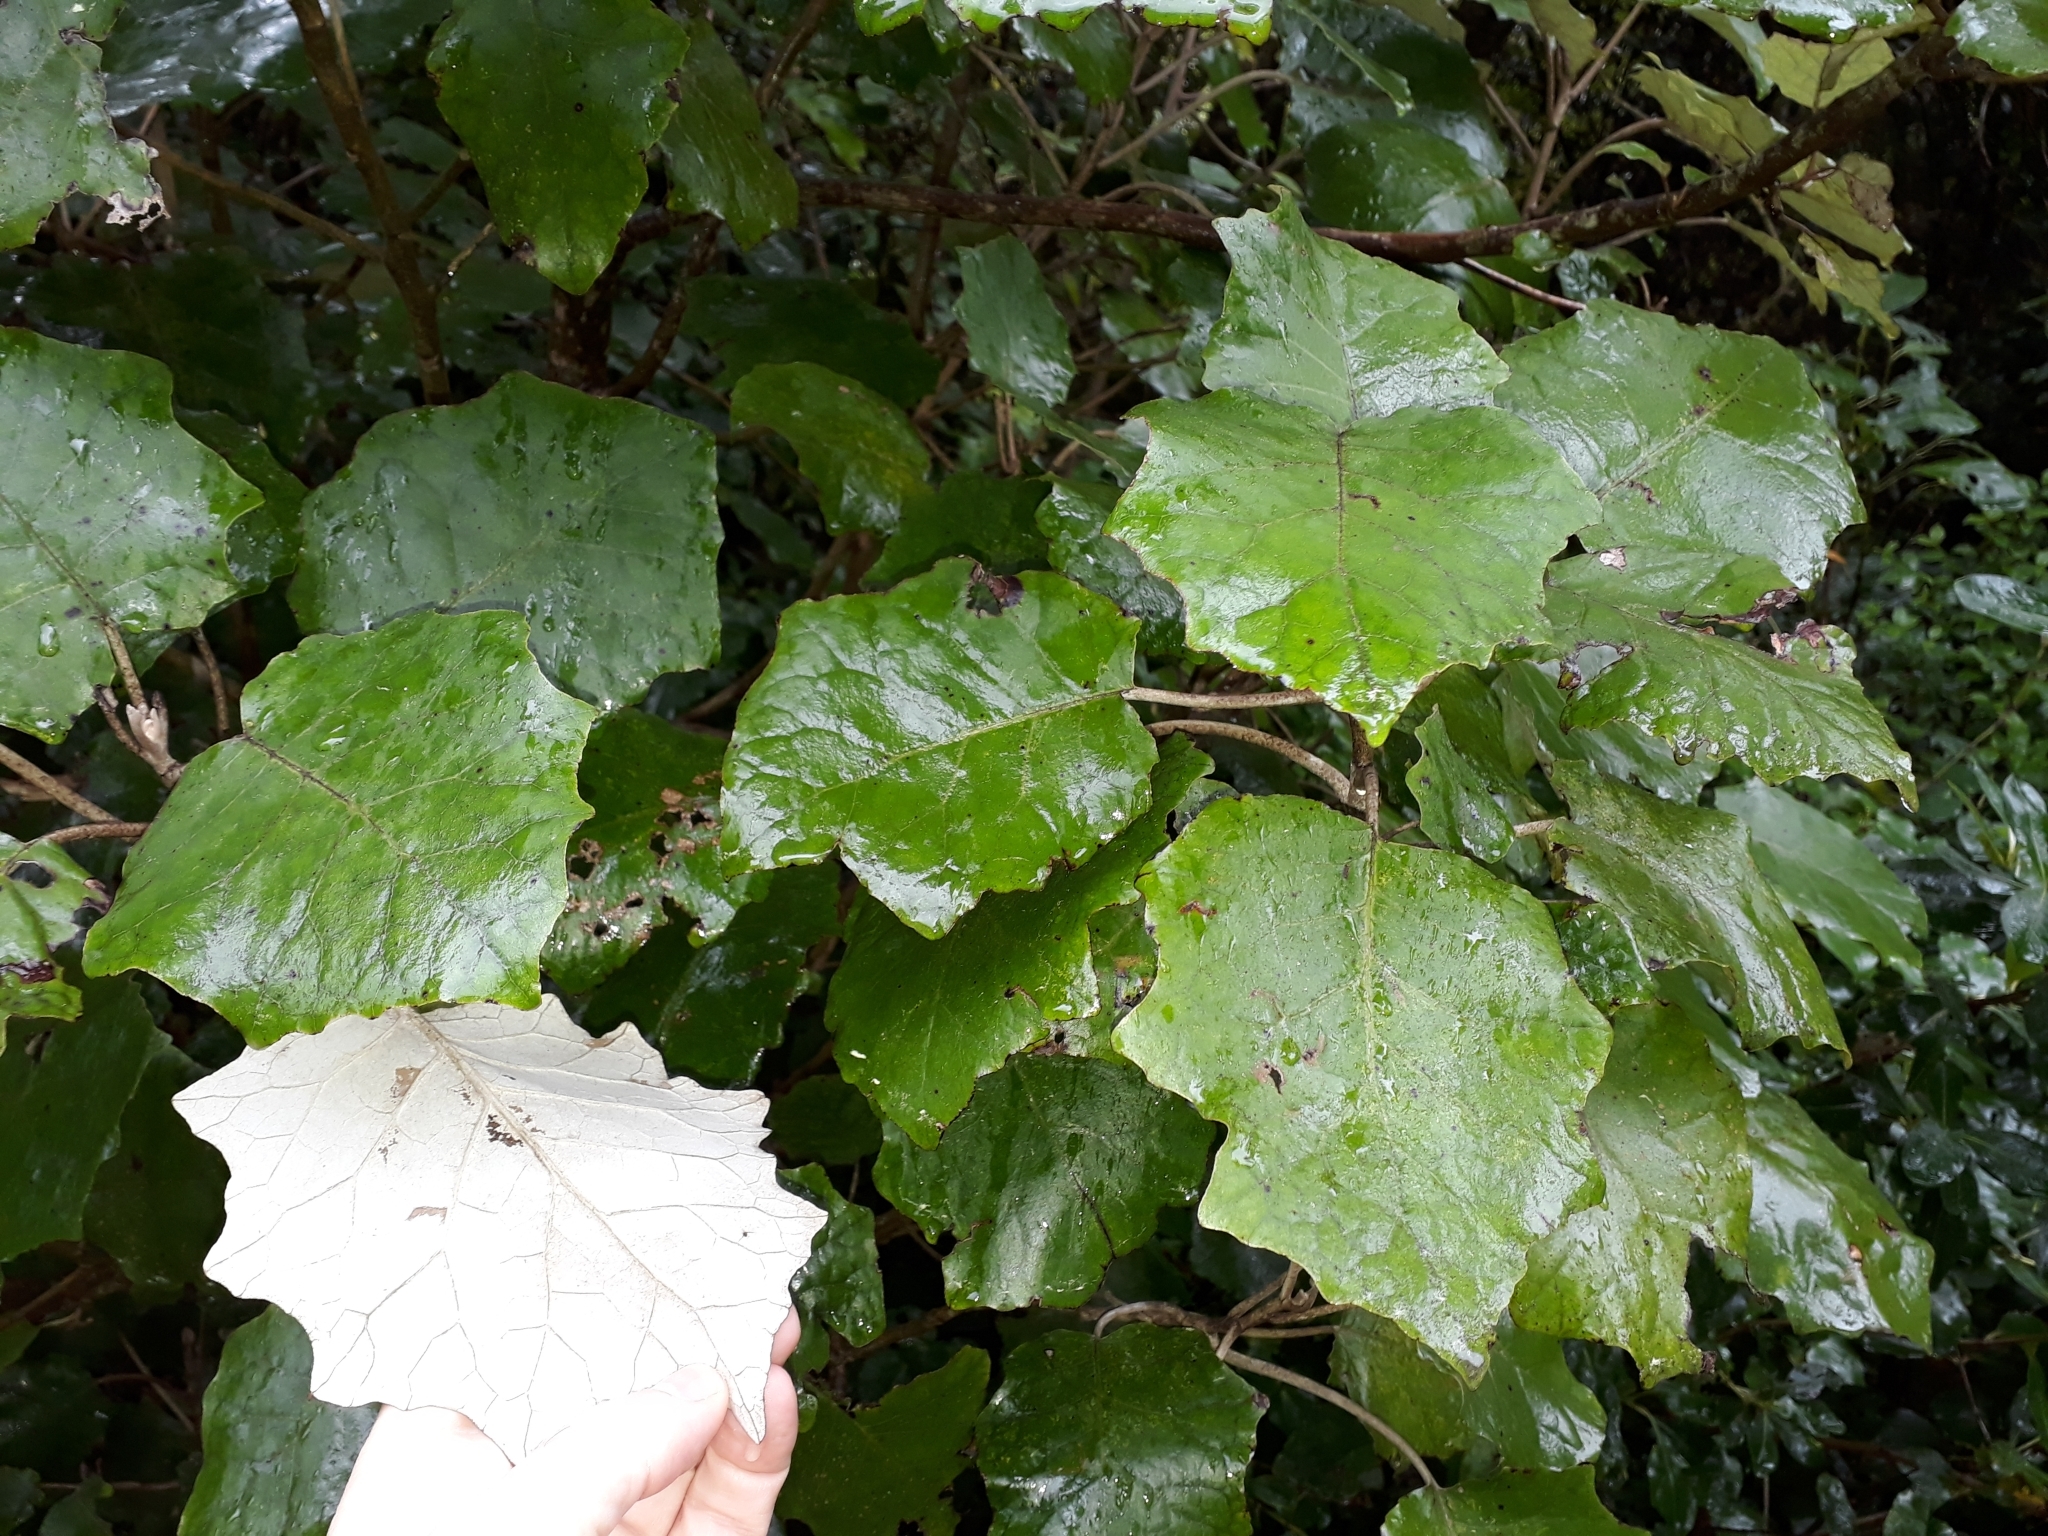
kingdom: Plantae
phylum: Tracheophyta
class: Magnoliopsida
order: Asterales
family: Asteraceae
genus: Brachyglottis
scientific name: Brachyglottis repanda
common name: Hedge ragwort
